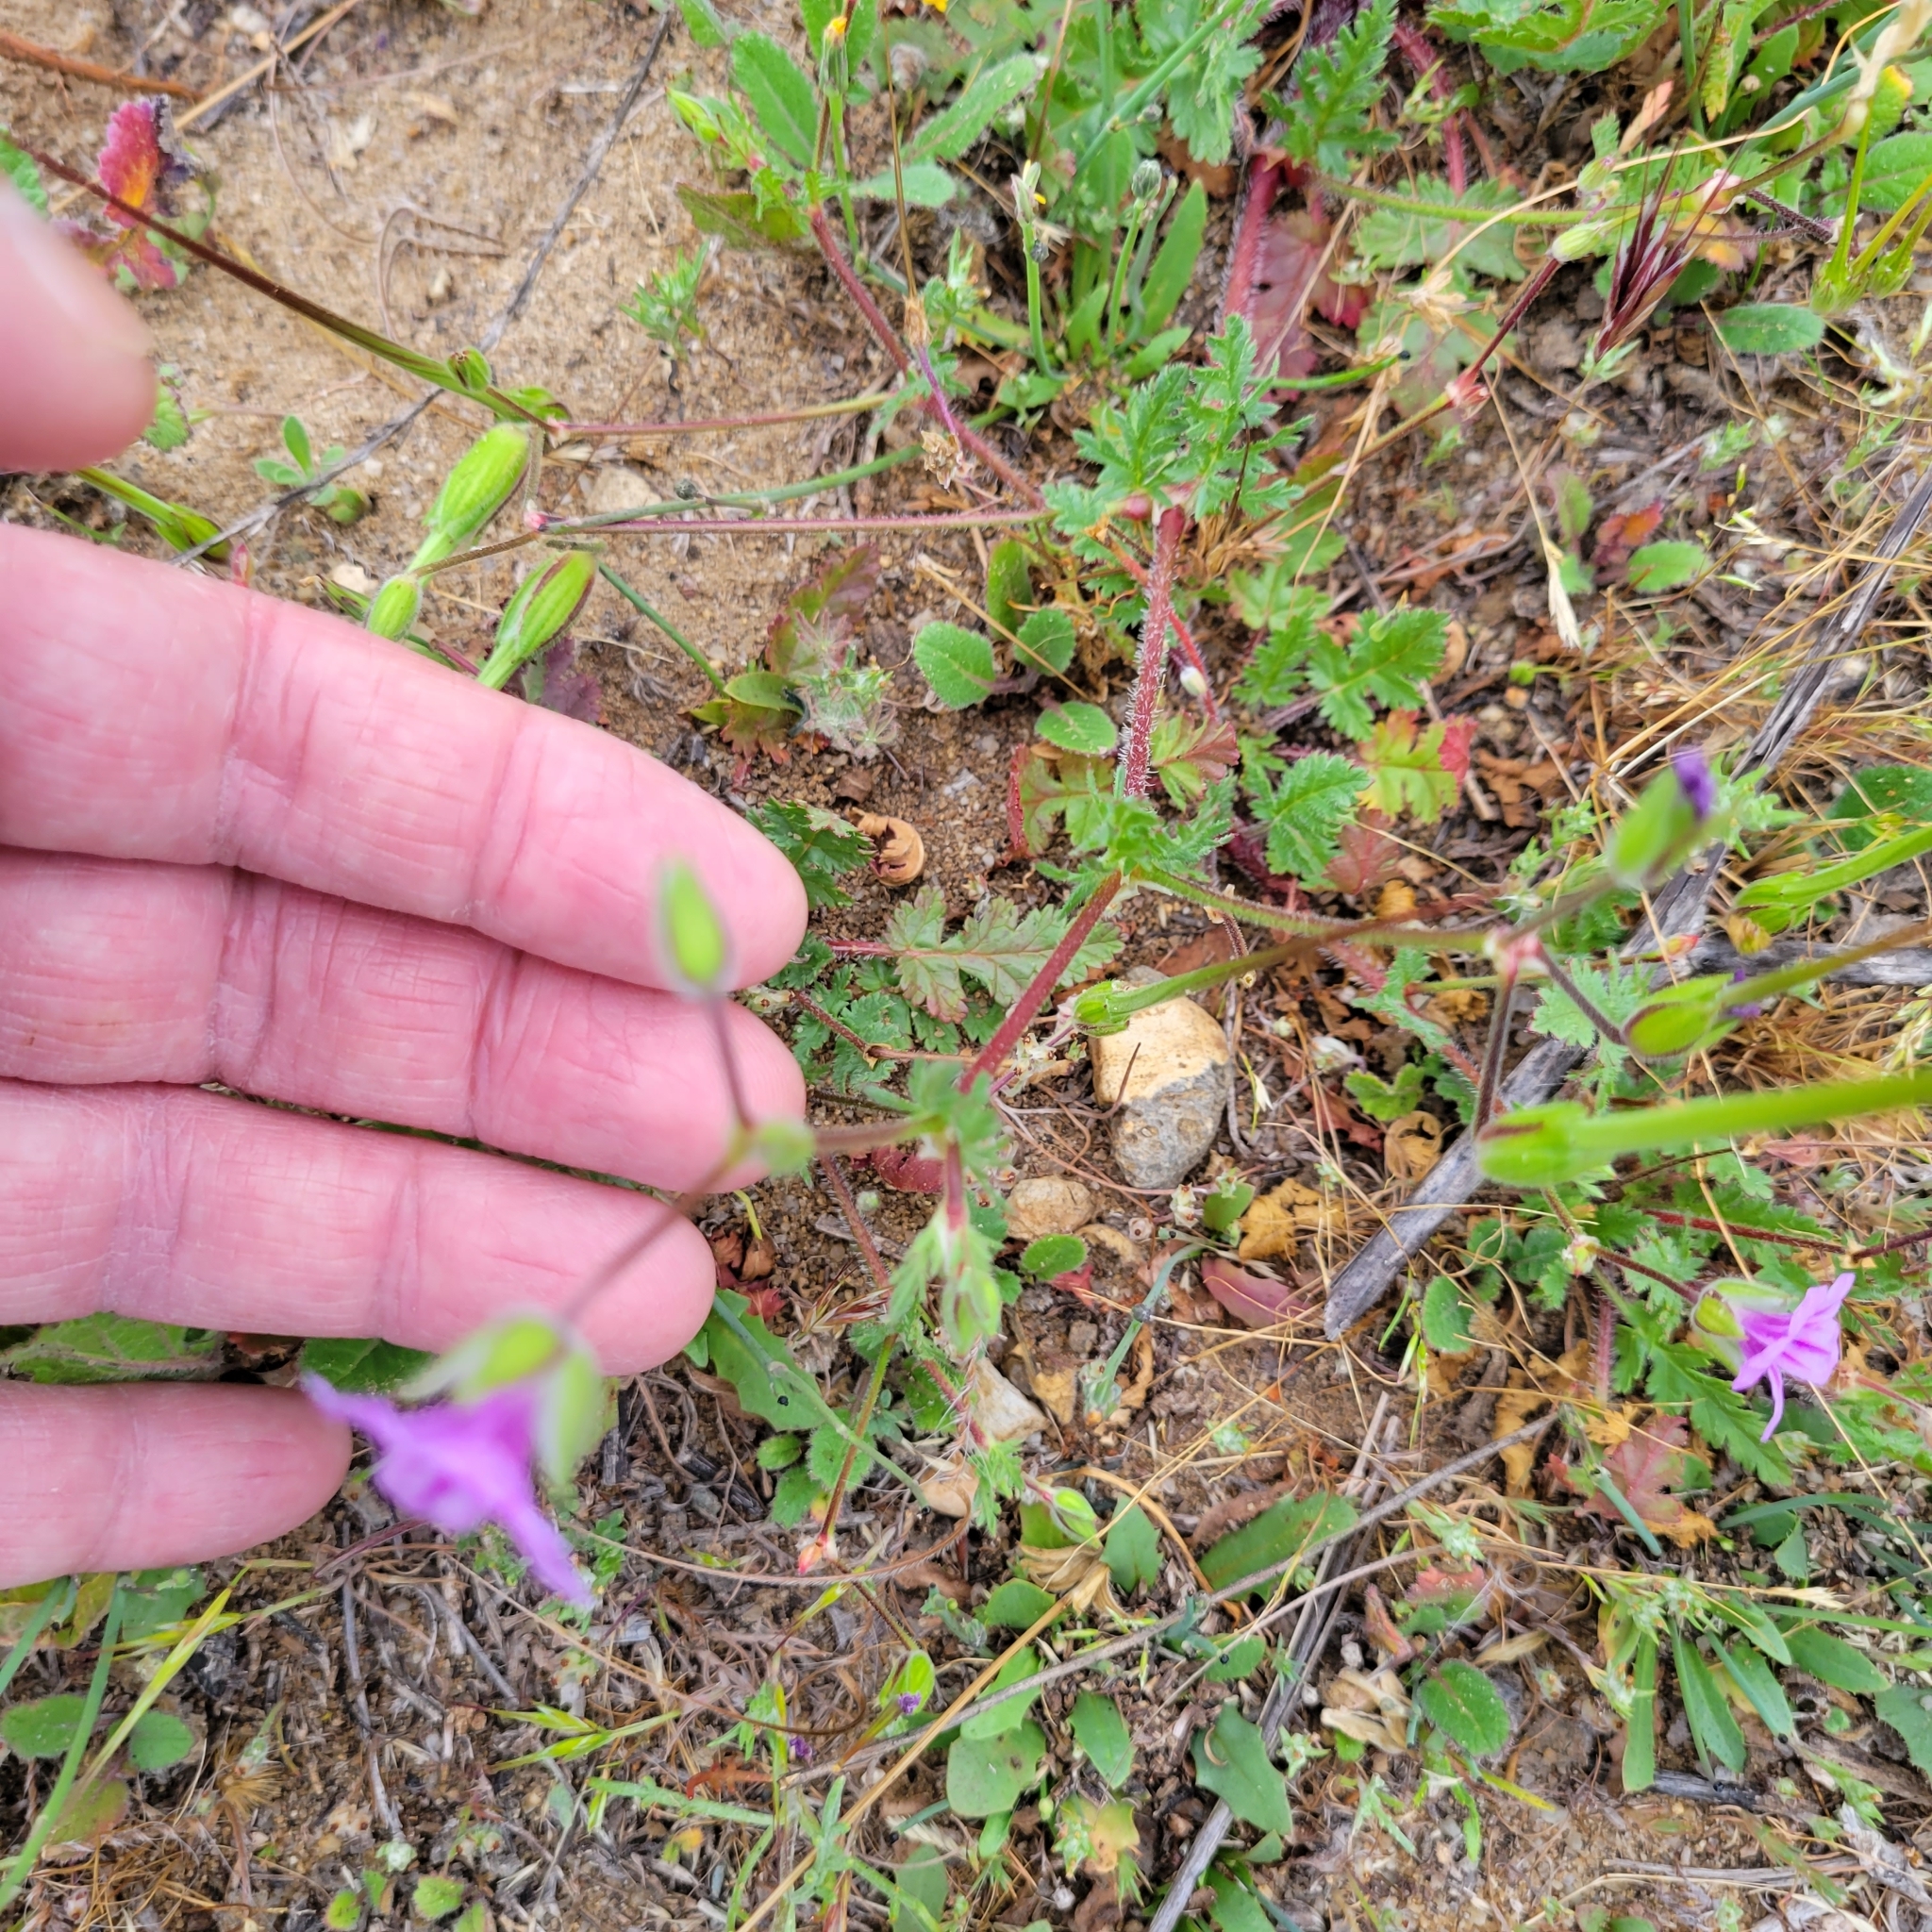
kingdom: Plantae
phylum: Tracheophyta
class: Magnoliopsida
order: Geraniales
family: Geraniaceae
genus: Erodium
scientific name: Erodium botrys
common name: Mediterranean stork's-bill
